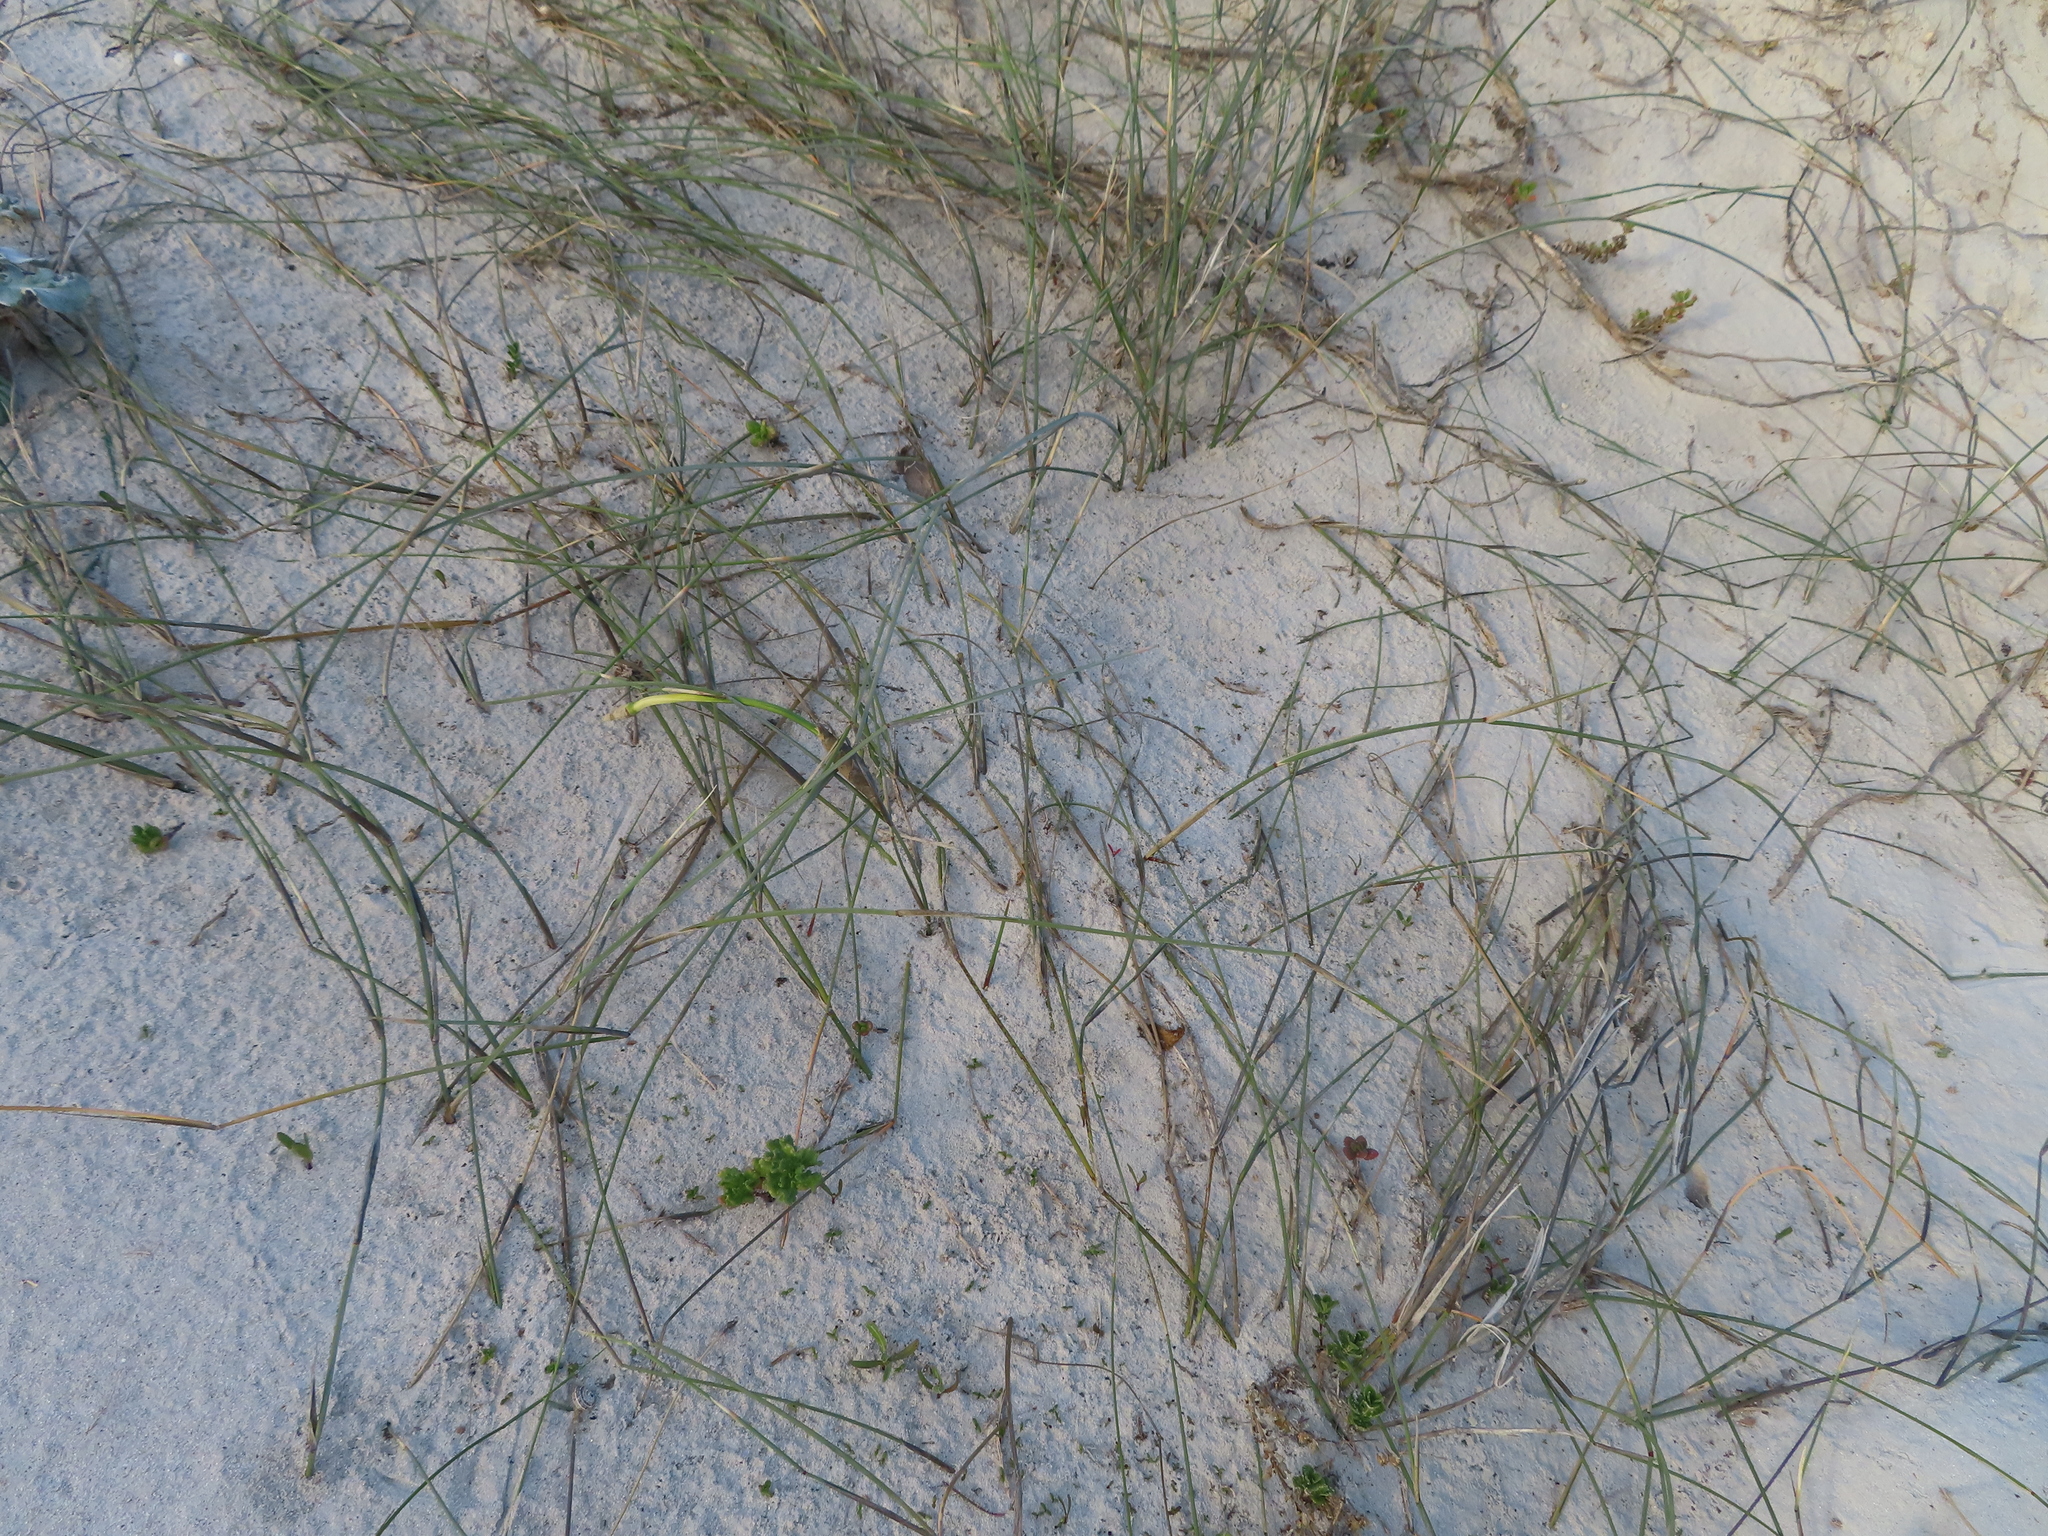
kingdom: Plantae
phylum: Tracheophyta
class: Liliopsida
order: Poales
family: Poaceae
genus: Ehrharta
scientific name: Ehrharta villosa
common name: Pyp grass
